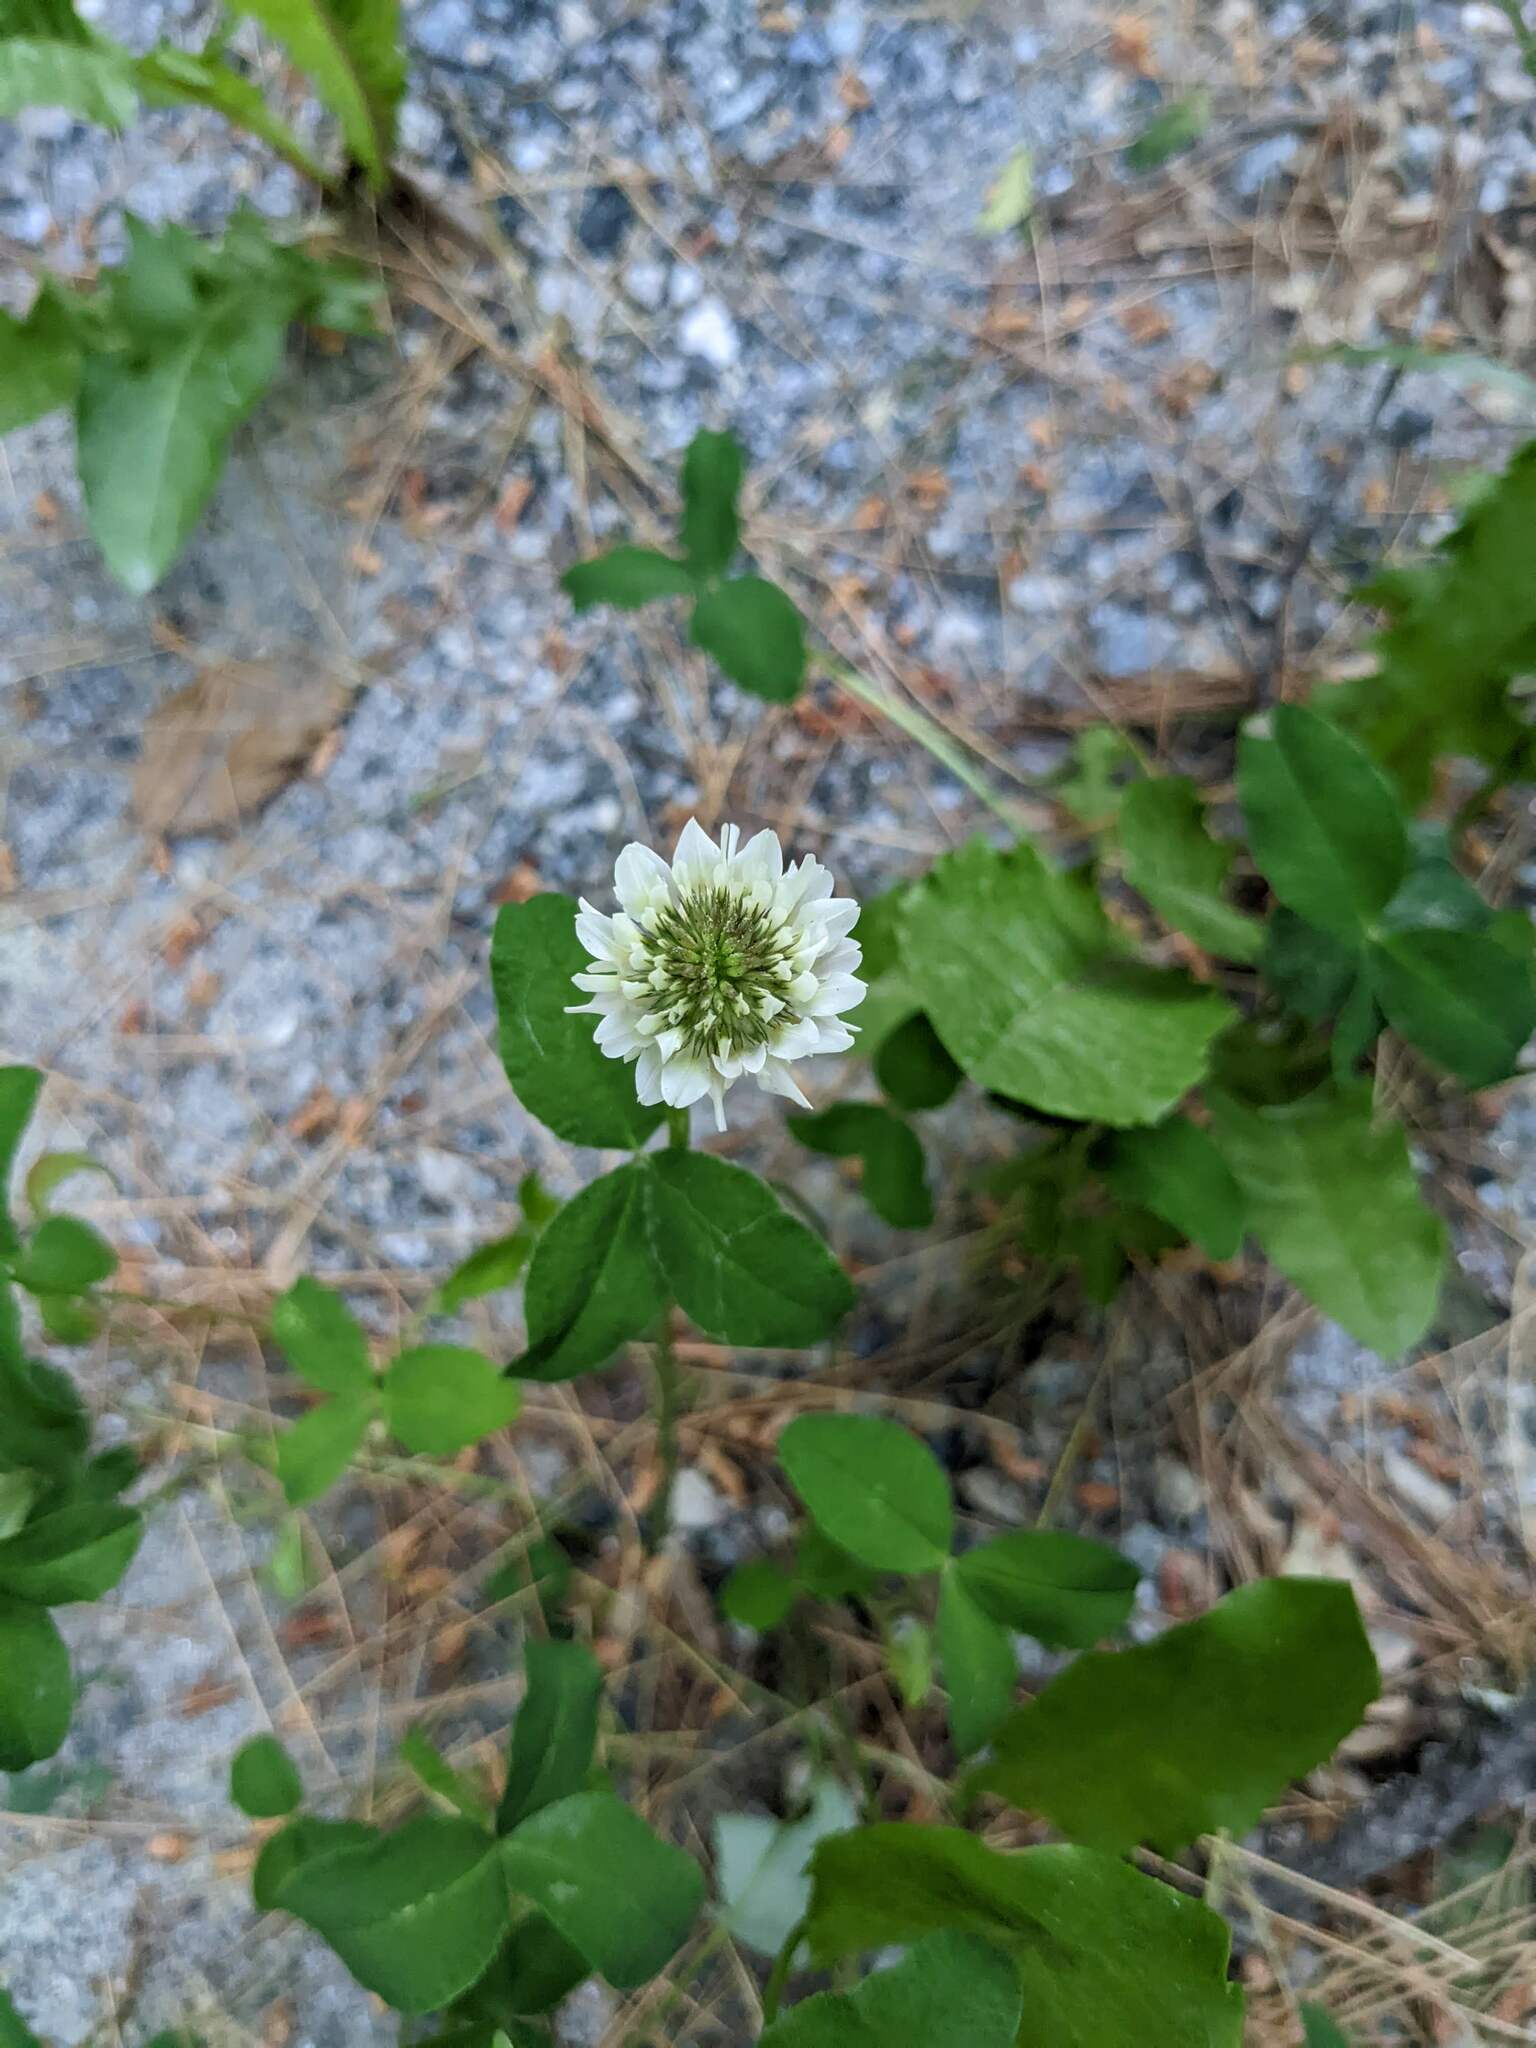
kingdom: Plantae
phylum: Tracheophyta
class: Magnoliopsida
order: Fabales
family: Fabaceae
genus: Trifolium
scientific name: Trifolium repens
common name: White clover
